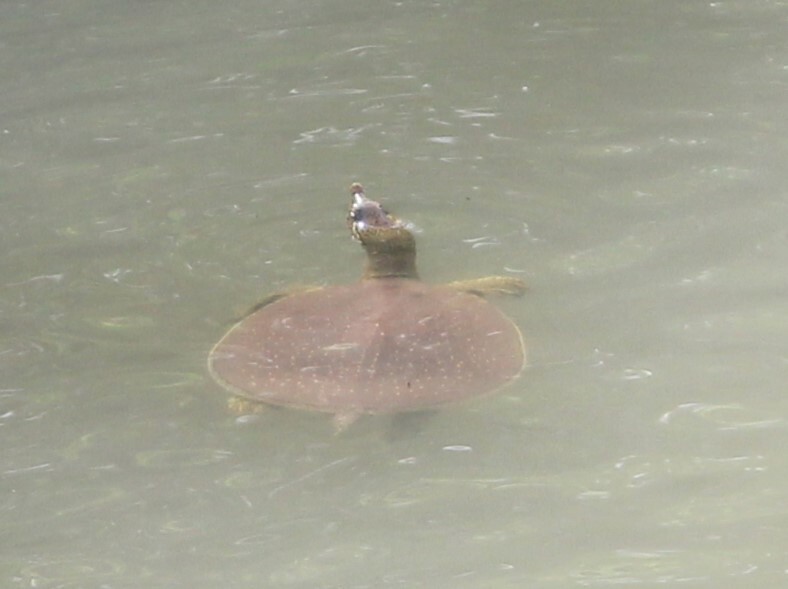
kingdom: Animalia
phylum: Chordata
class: Testudines
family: Trionychidae
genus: Apalone
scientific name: Apalone spinifera
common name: Spiny softshell turtle
